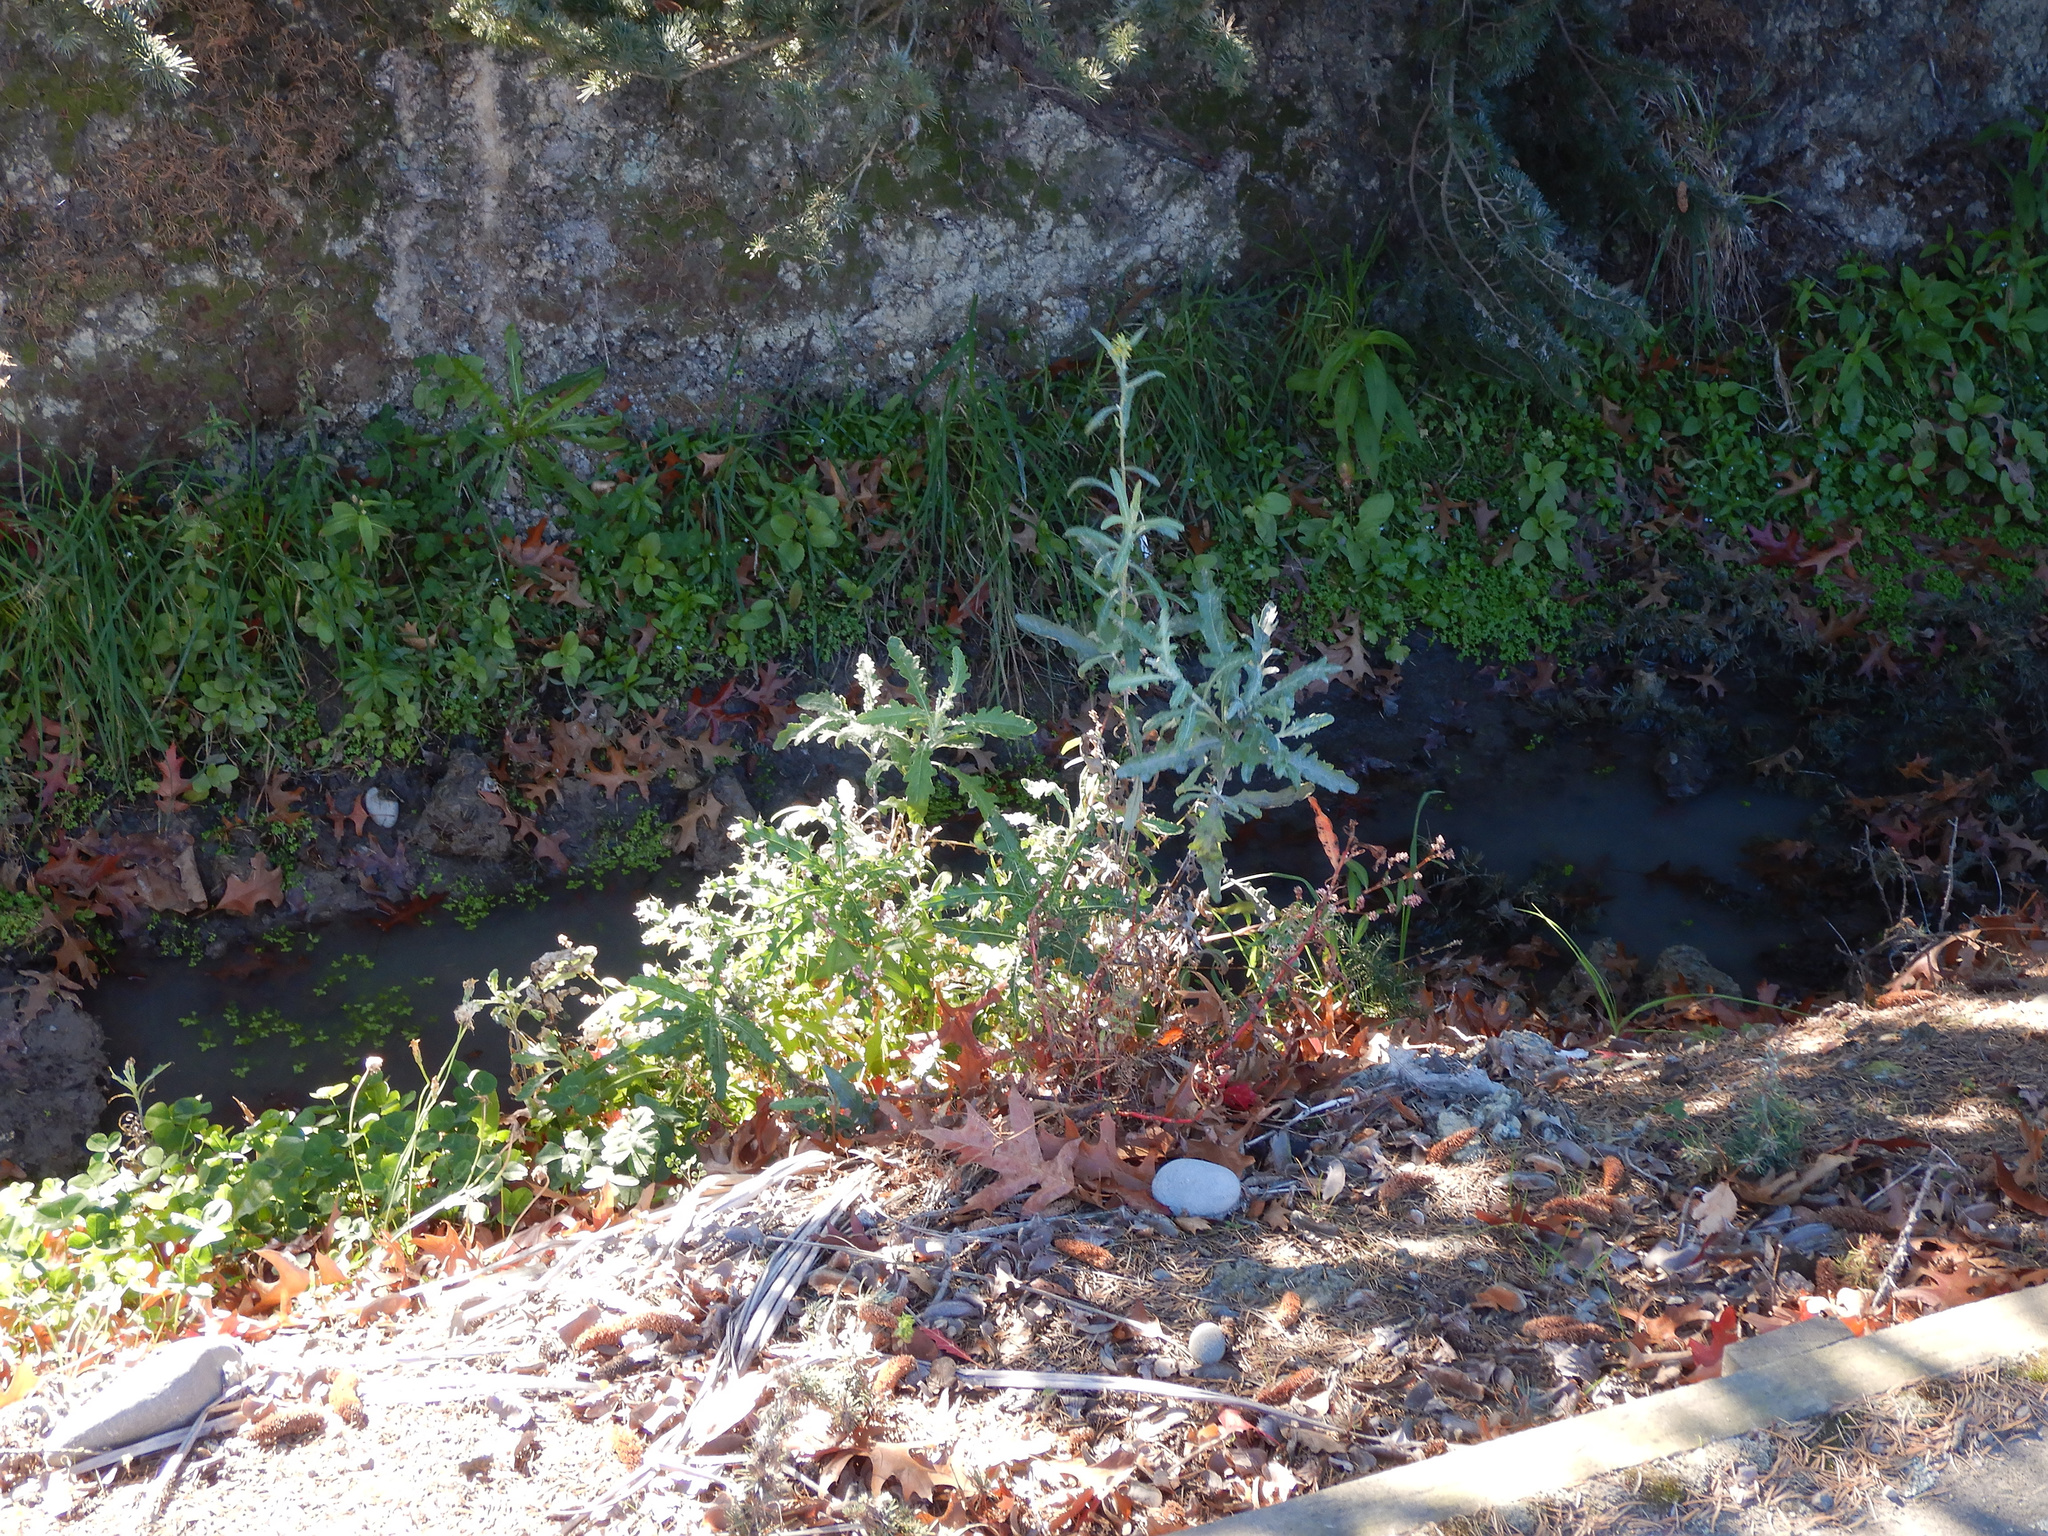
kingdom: Plantae
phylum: Tracheophyta
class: Magnoliopsida
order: Asterales
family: Asteraceae
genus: Senecio
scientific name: Senecio glomeratus
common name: Cutleaf burnweed
